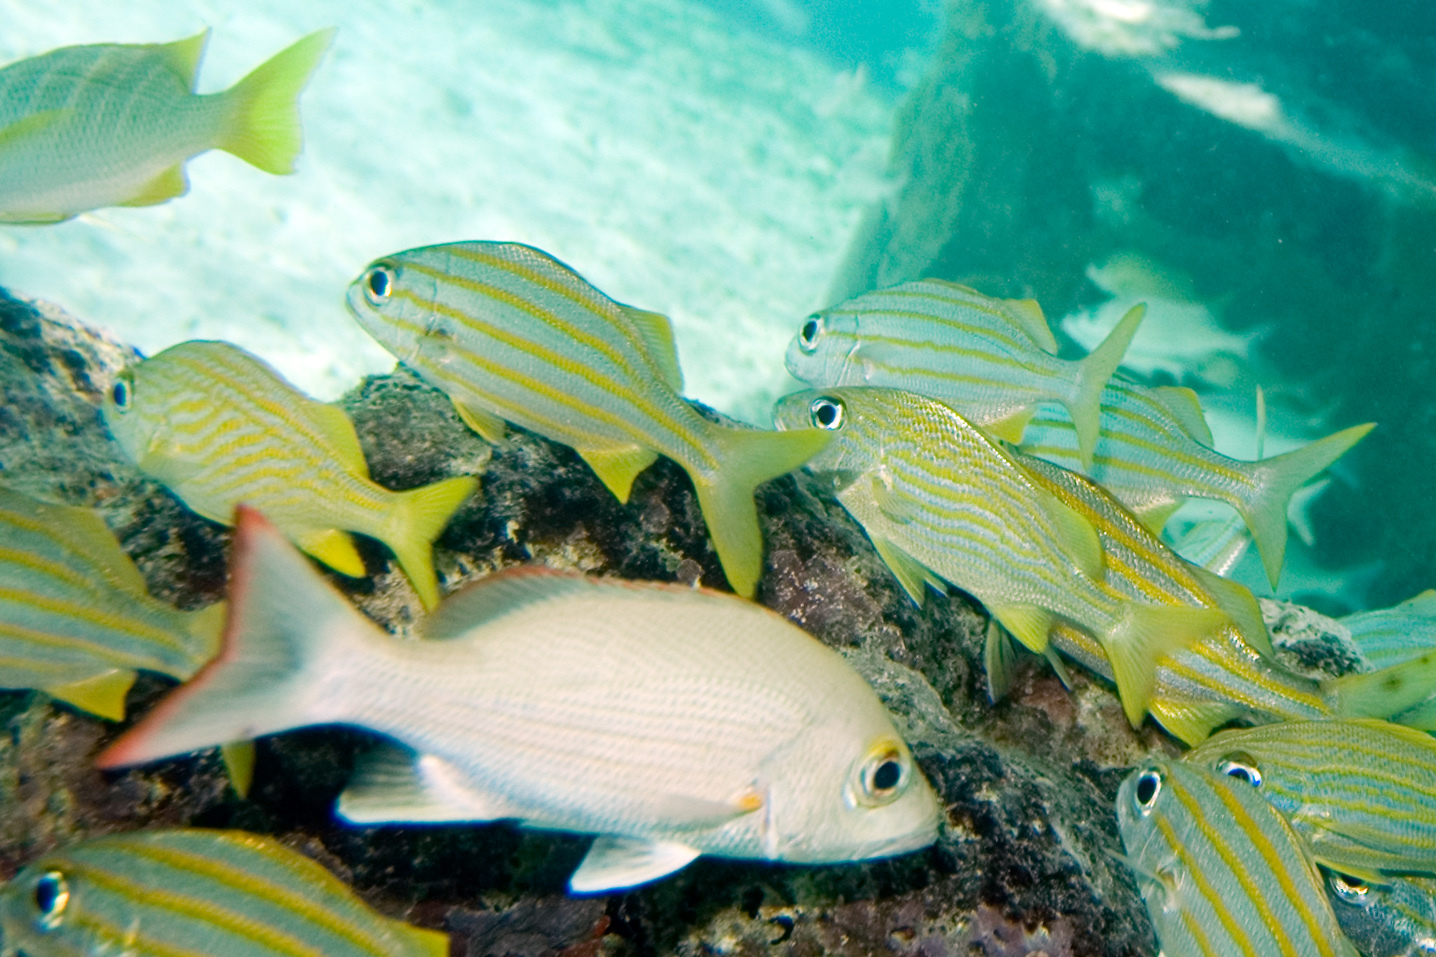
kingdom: Animalia
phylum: Chordata
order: Perciformes
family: Lutjanidae
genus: Lutjanus
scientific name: Lutjanus mahogoni
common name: Spot snapper
